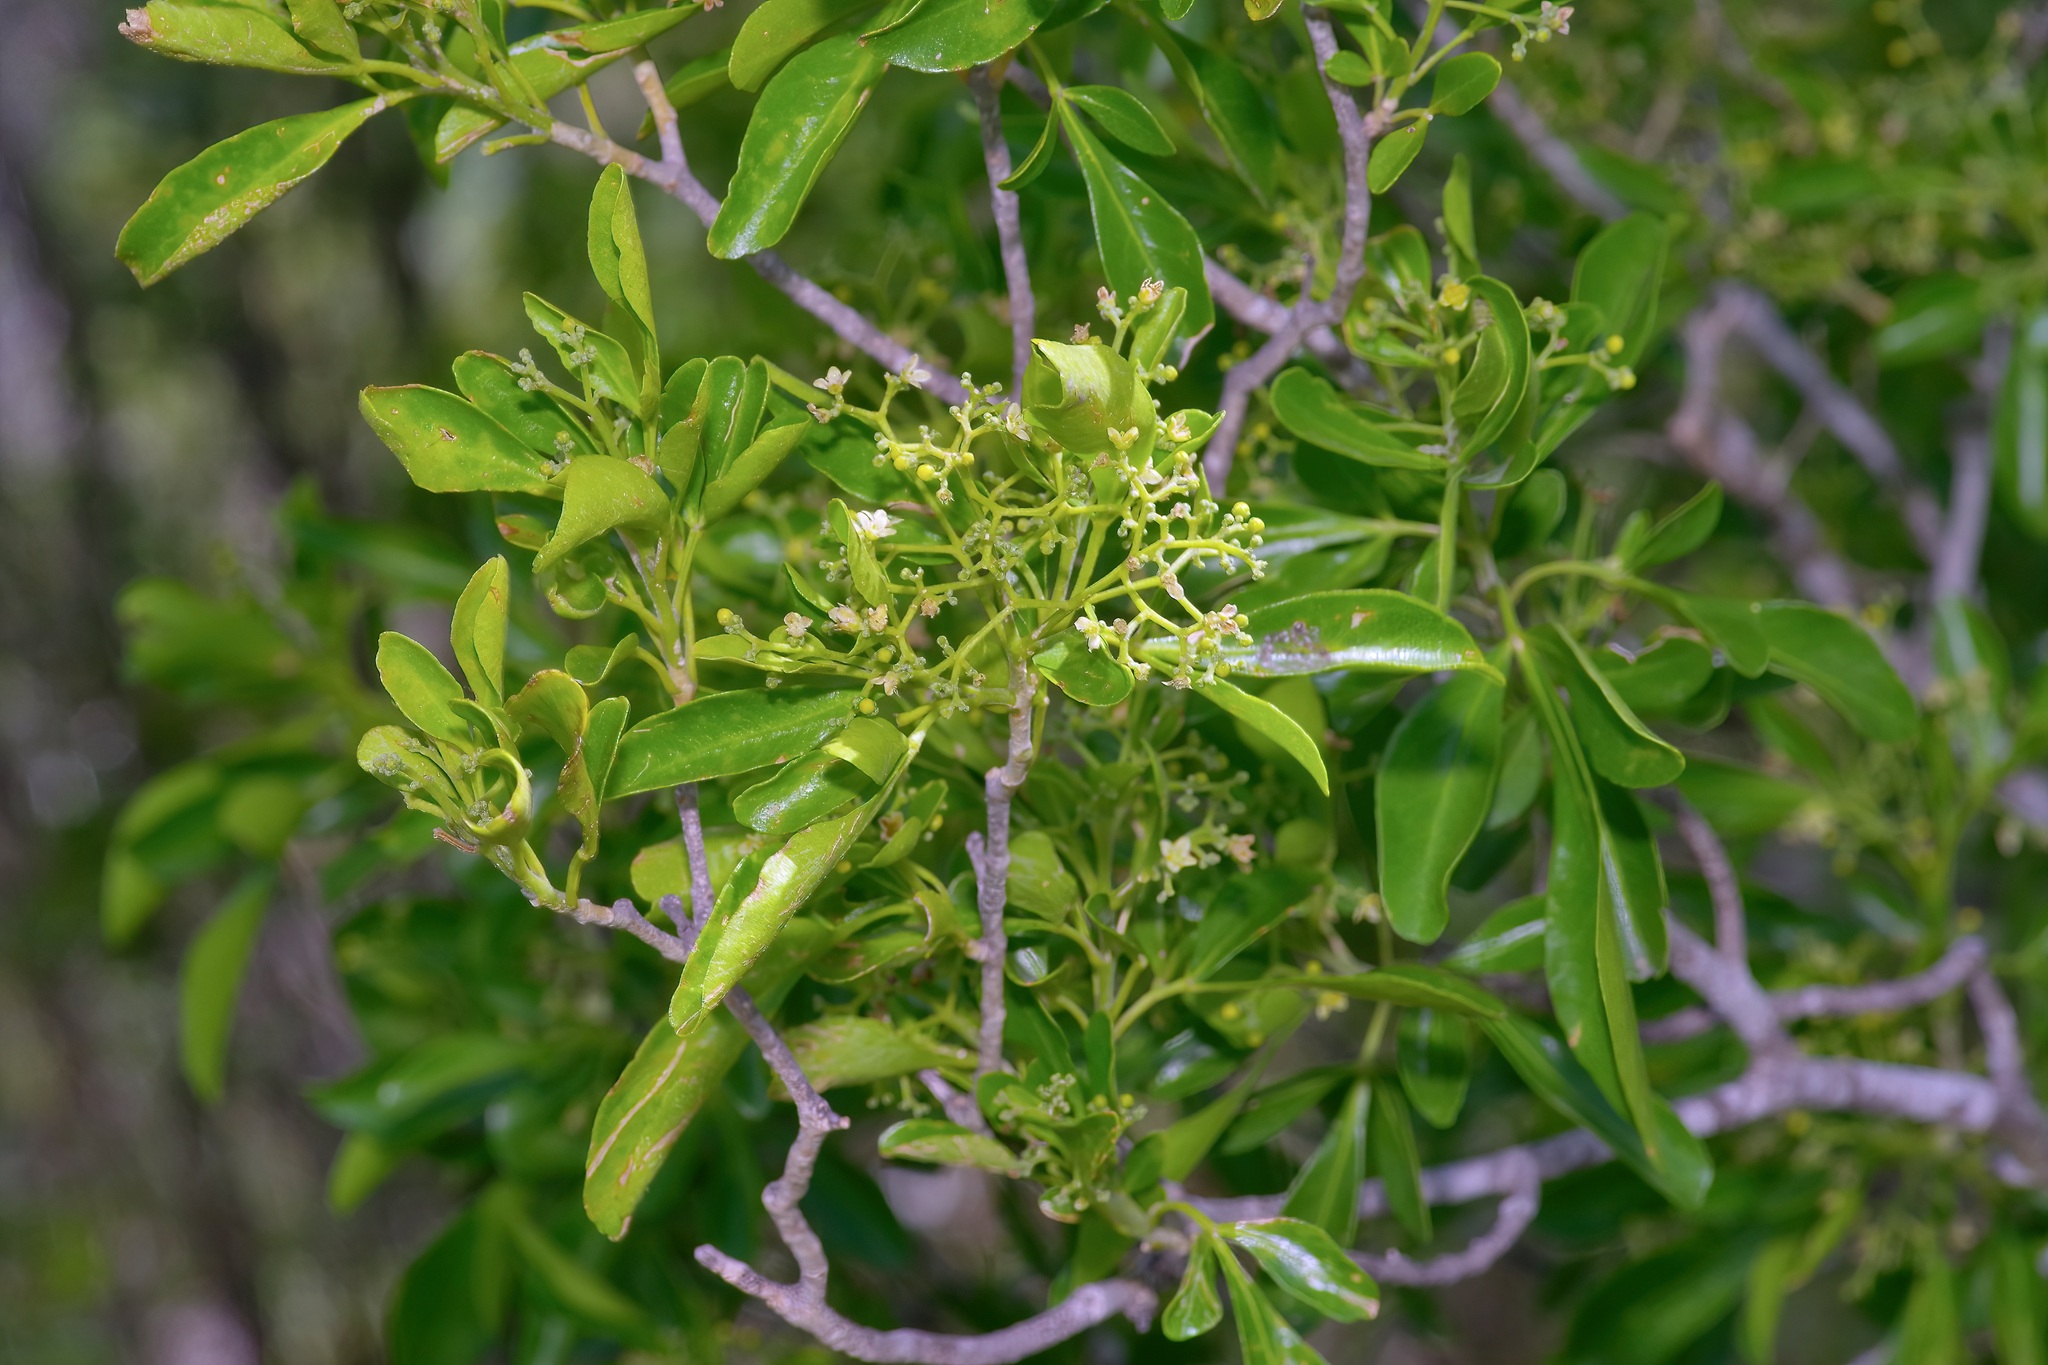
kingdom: Plantae
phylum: Tracheophyta
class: Magnoliopsida
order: Sapindales
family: Rutaceae
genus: Helietta
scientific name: Helietta parvifolia
